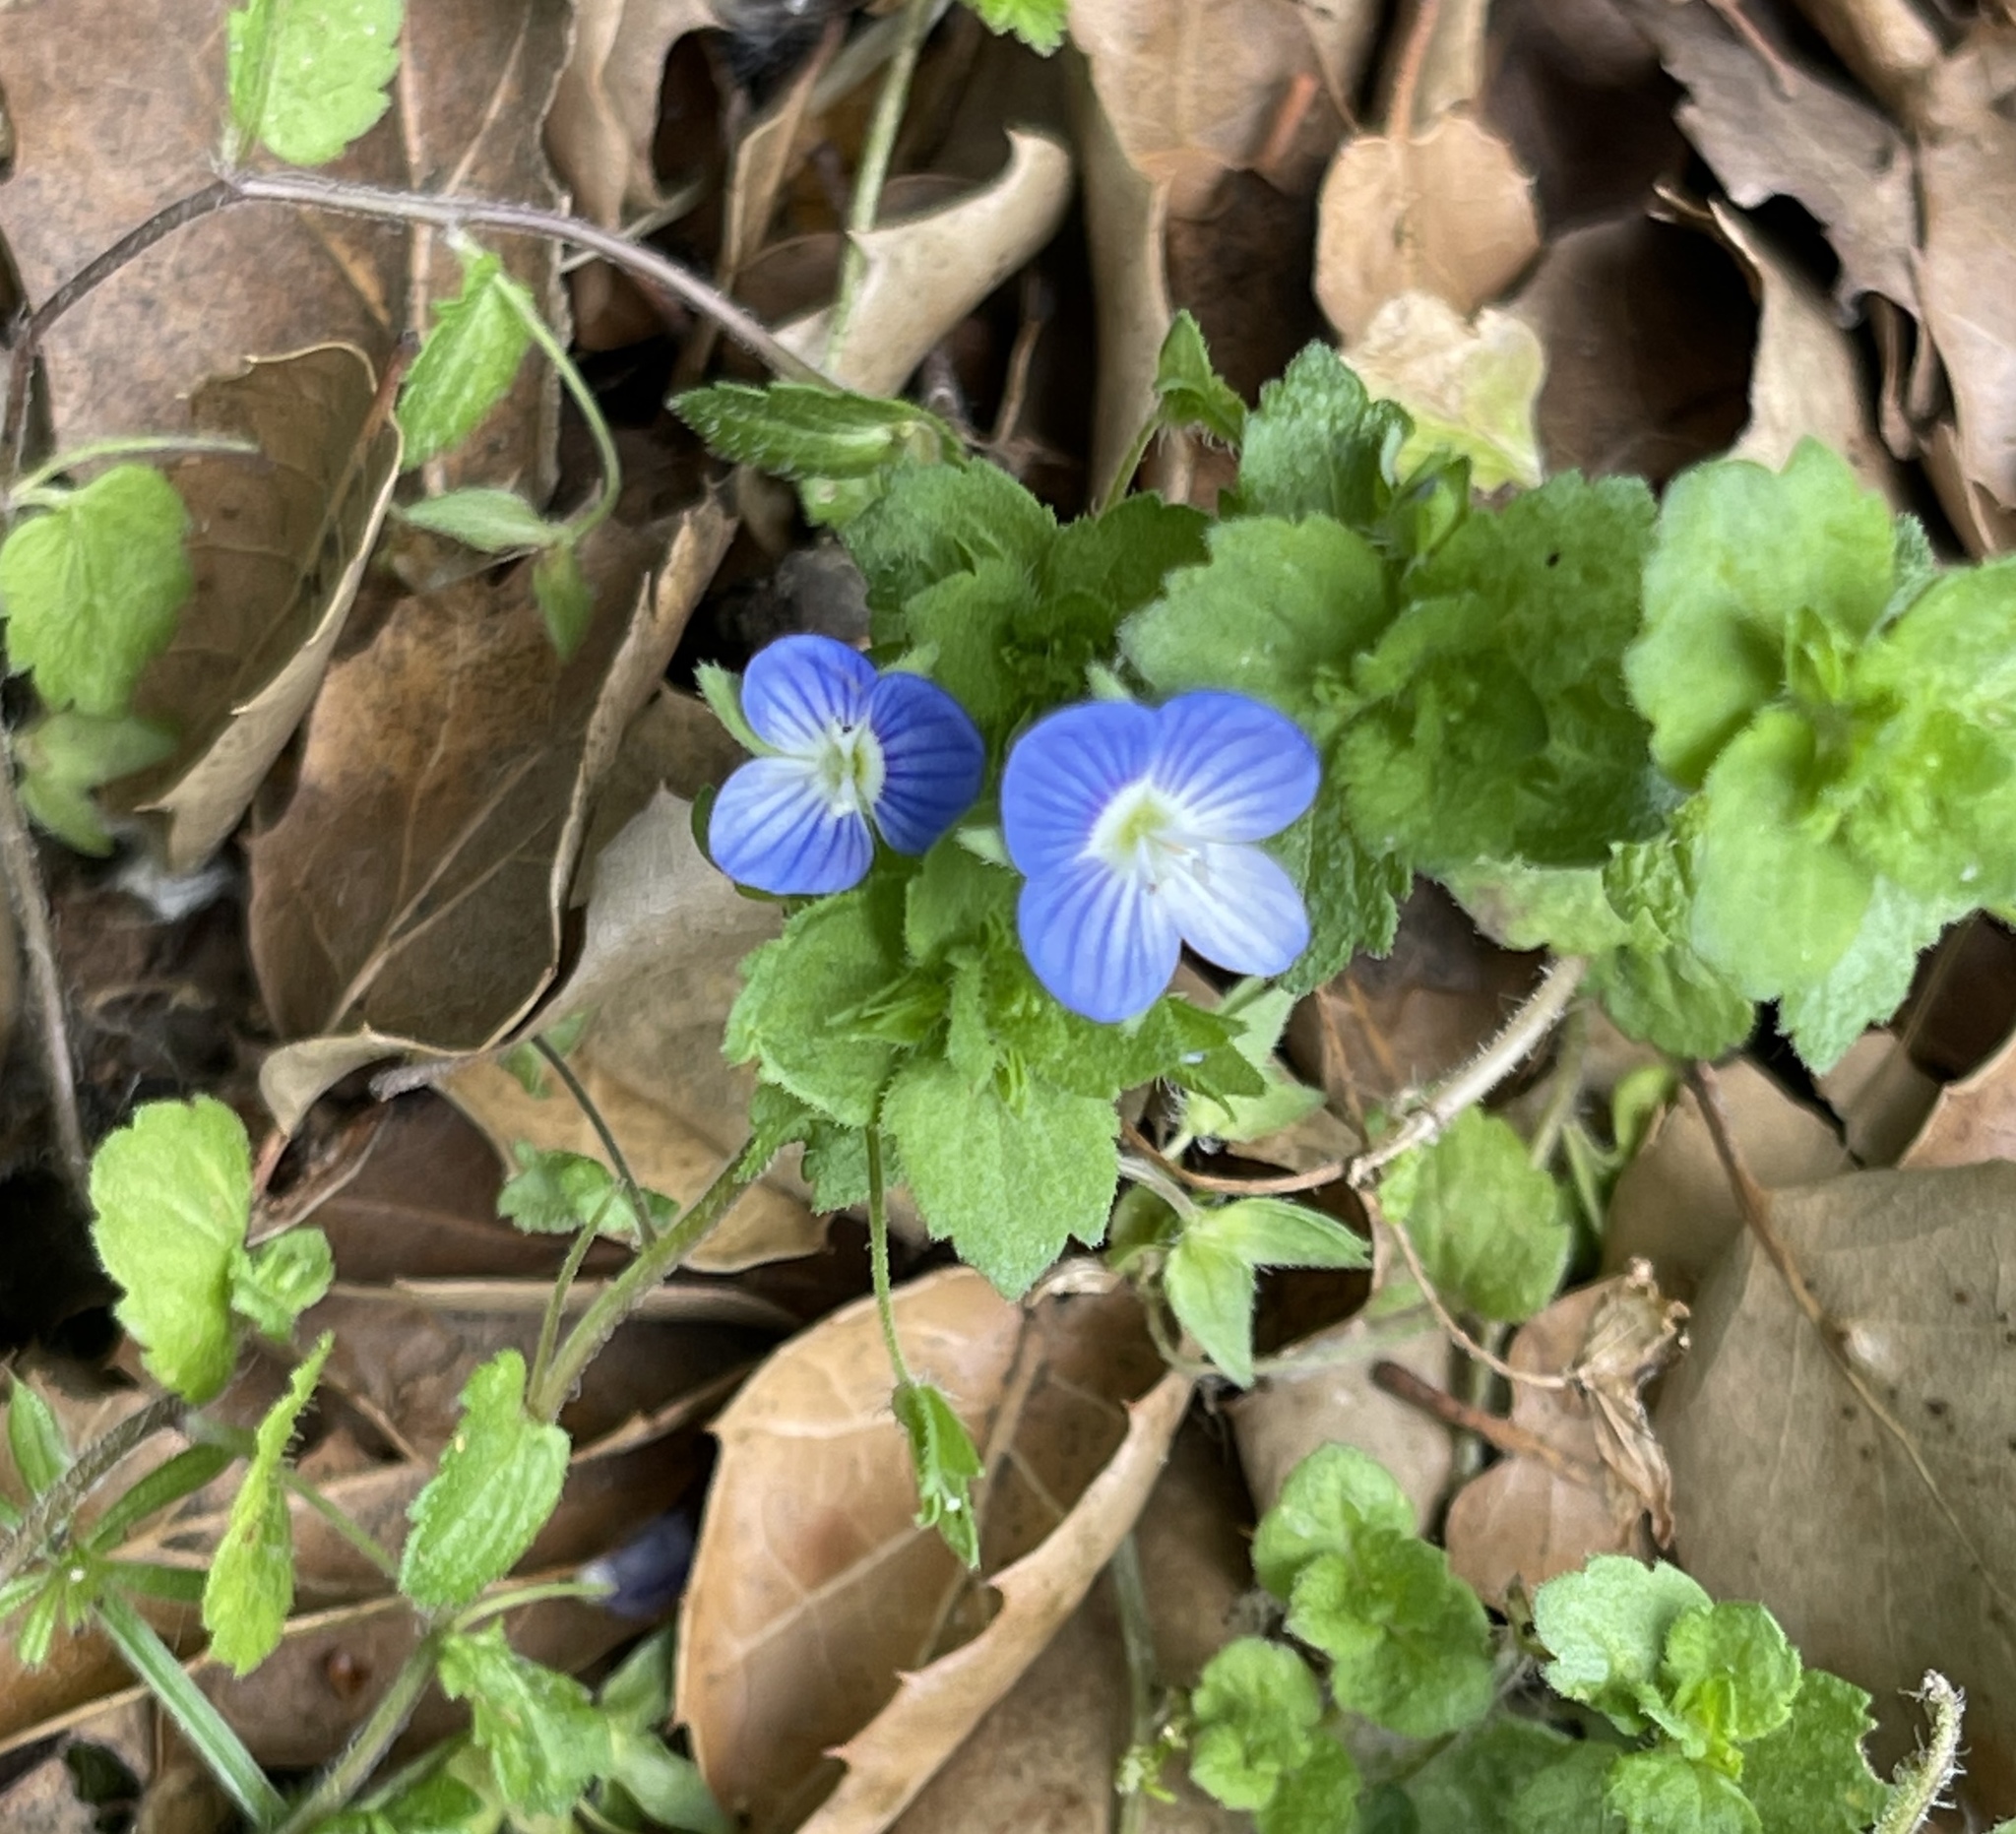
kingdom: Plantae
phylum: Tracheophyta
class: Magnoliopsida
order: Lamiales
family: Plantaginaceae
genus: Veronica
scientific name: Veronica persica
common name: Common field-speedwell
